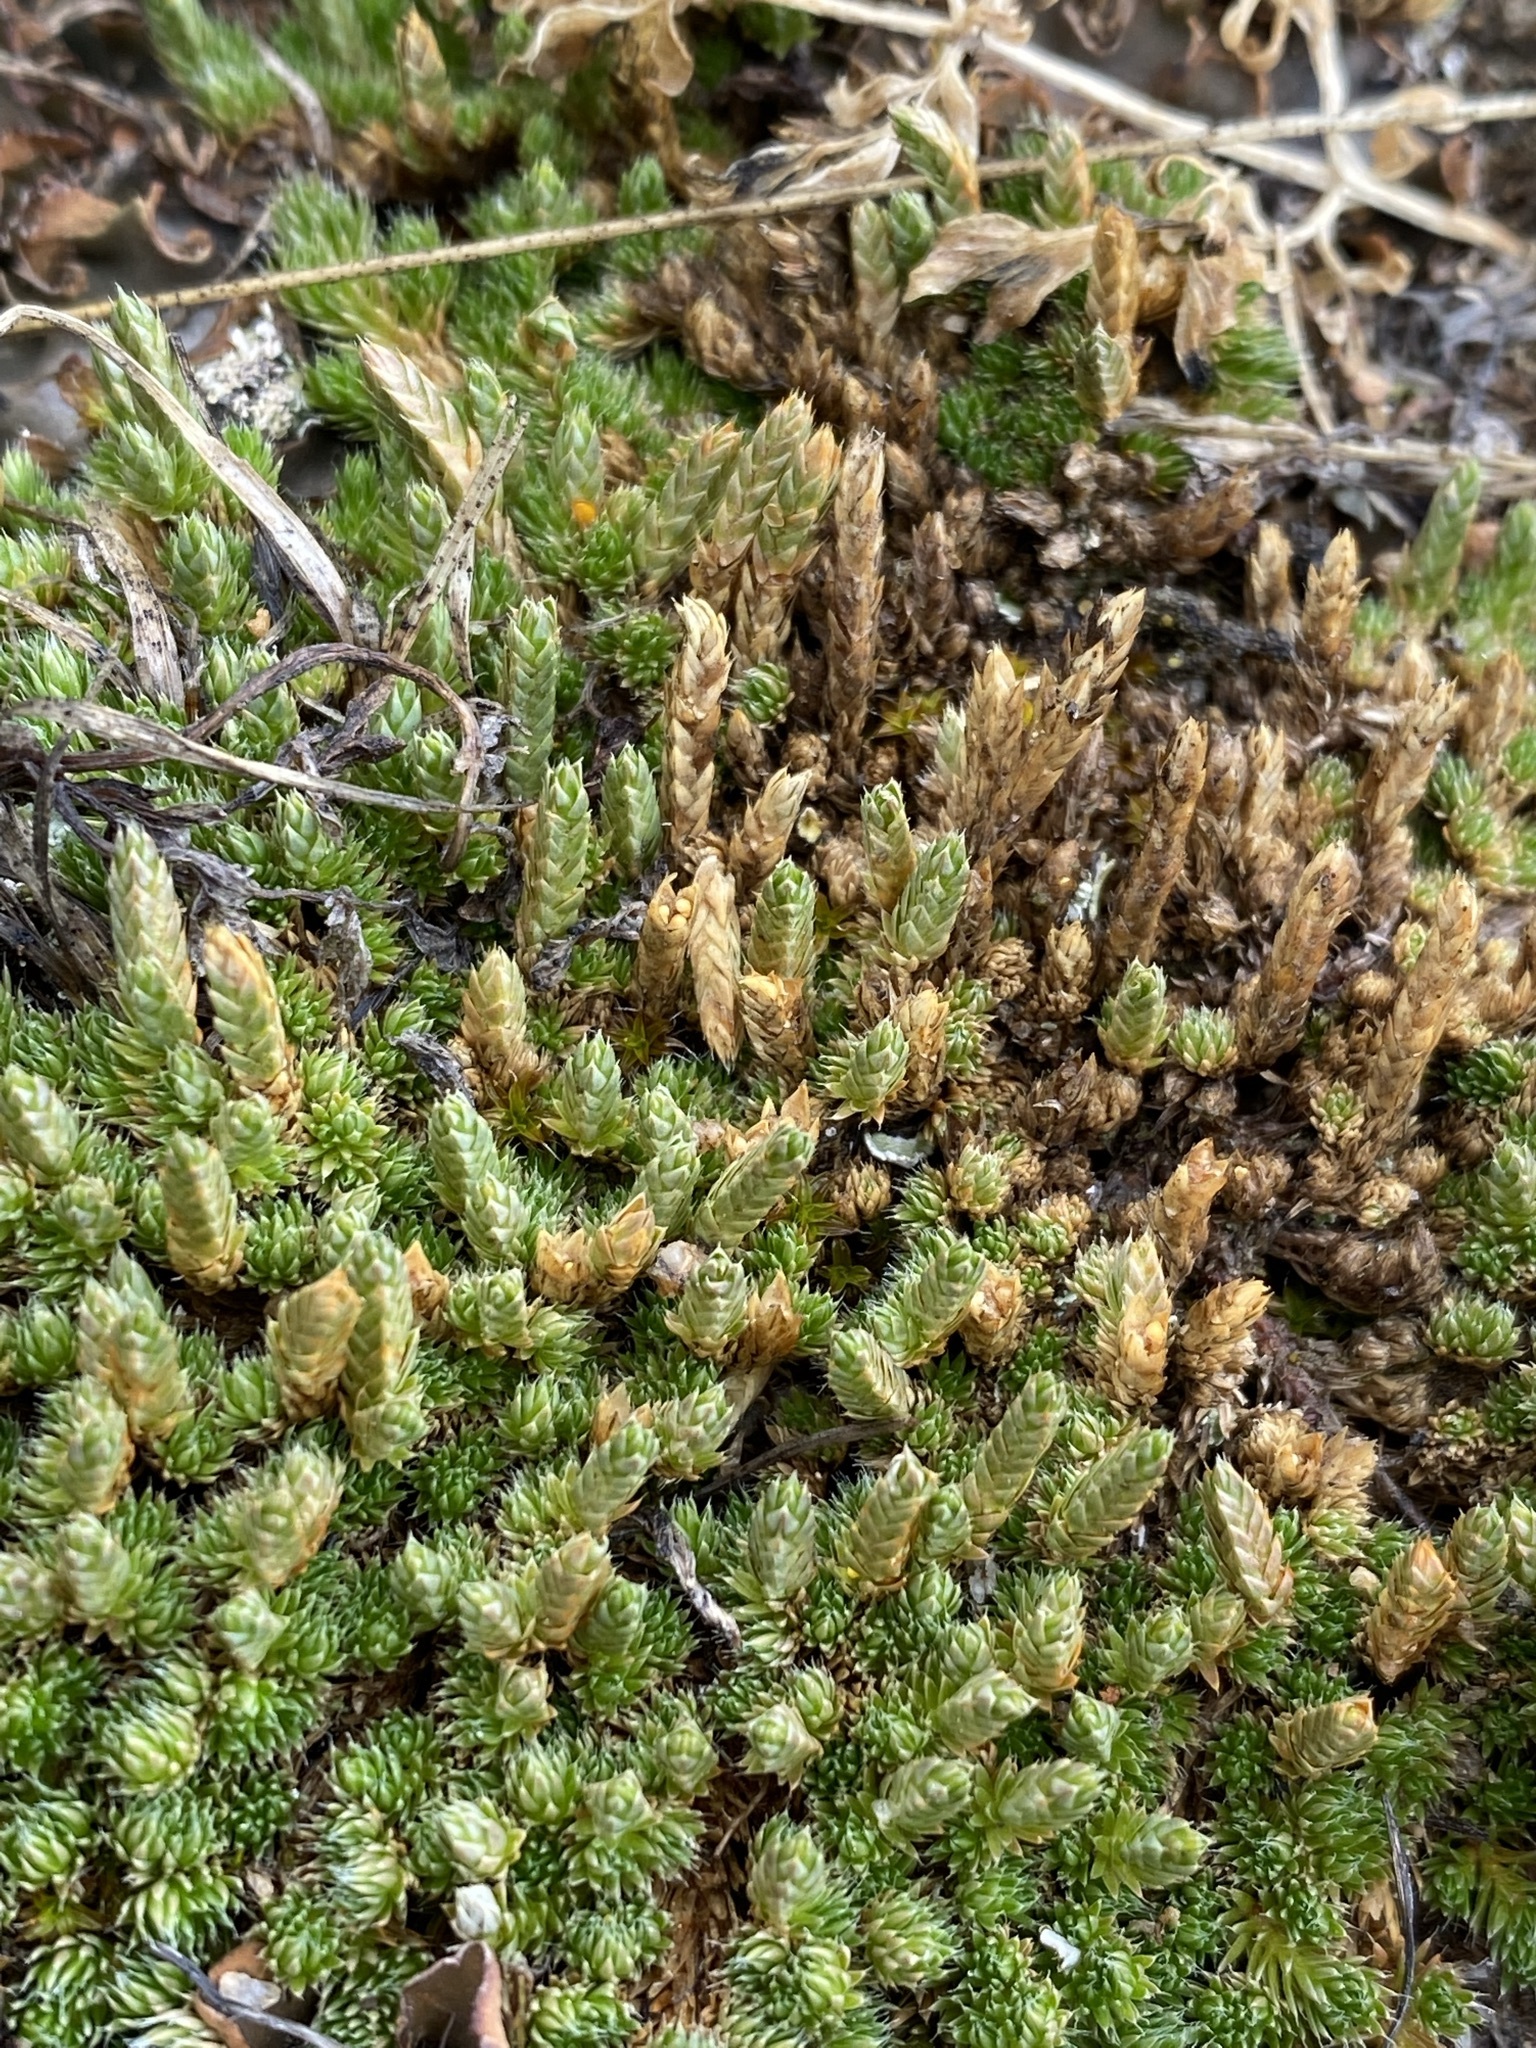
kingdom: Plantae
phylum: Tracheophyta
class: Lycopodiopsida
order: Selaginellales
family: Selaginellaceae
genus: Selaginella
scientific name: Selaginella densa
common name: Mountain spike-moss
